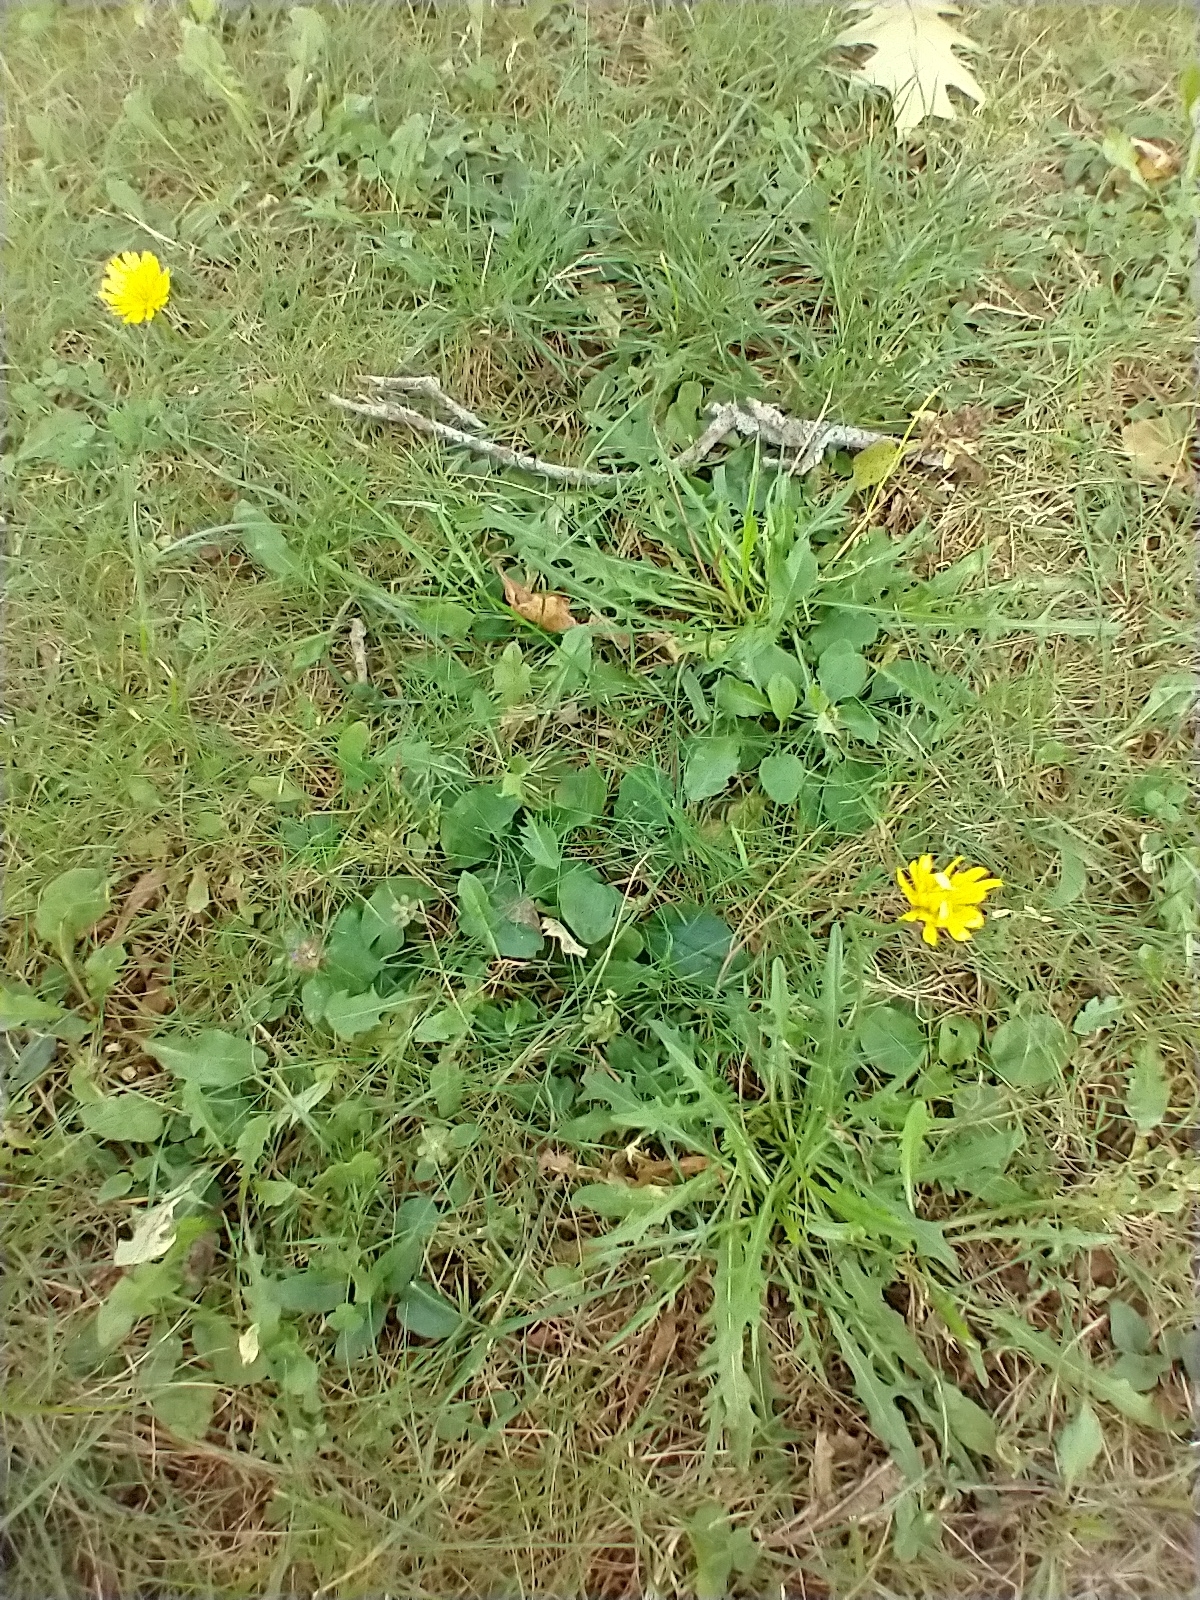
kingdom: Plantae
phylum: Tracheophyta
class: Magnoliopsida
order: Asterales
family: Asteraceae
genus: Scorzoneroides
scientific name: Scorzoneroides autumnalis
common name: Autumn hawkbit
